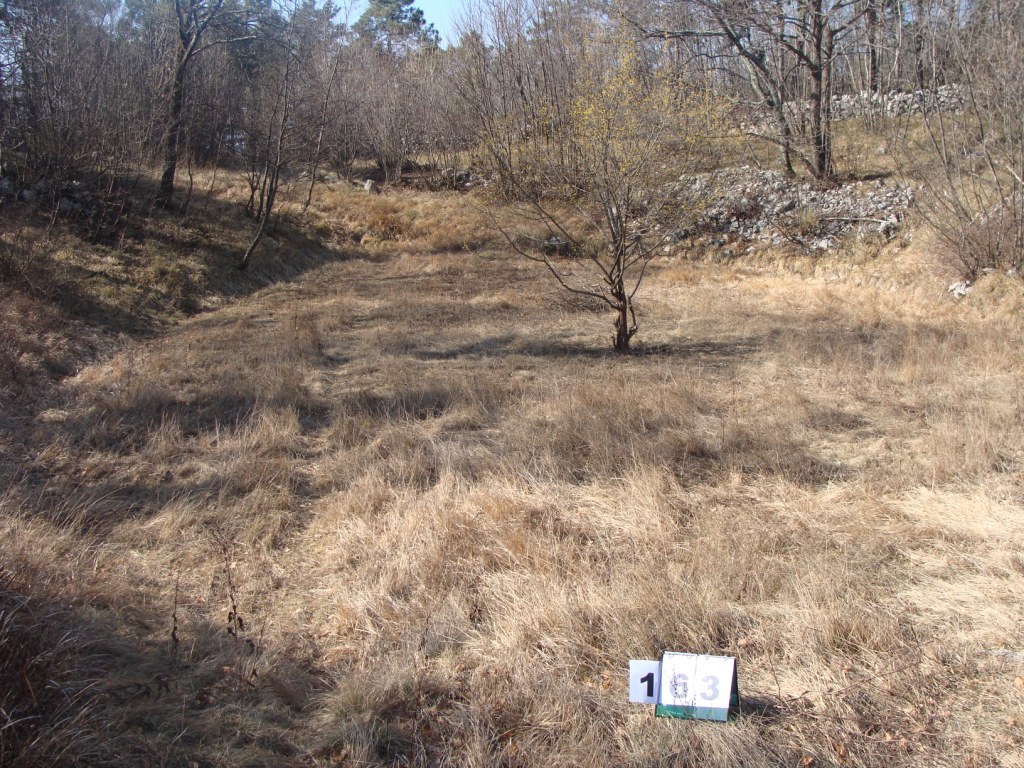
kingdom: Plantae
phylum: Tracheophyta
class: Magnoliopsida
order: Cornales
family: Cornaceae
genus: Cornus
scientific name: Cornus mas
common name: Cornelian-cherry
